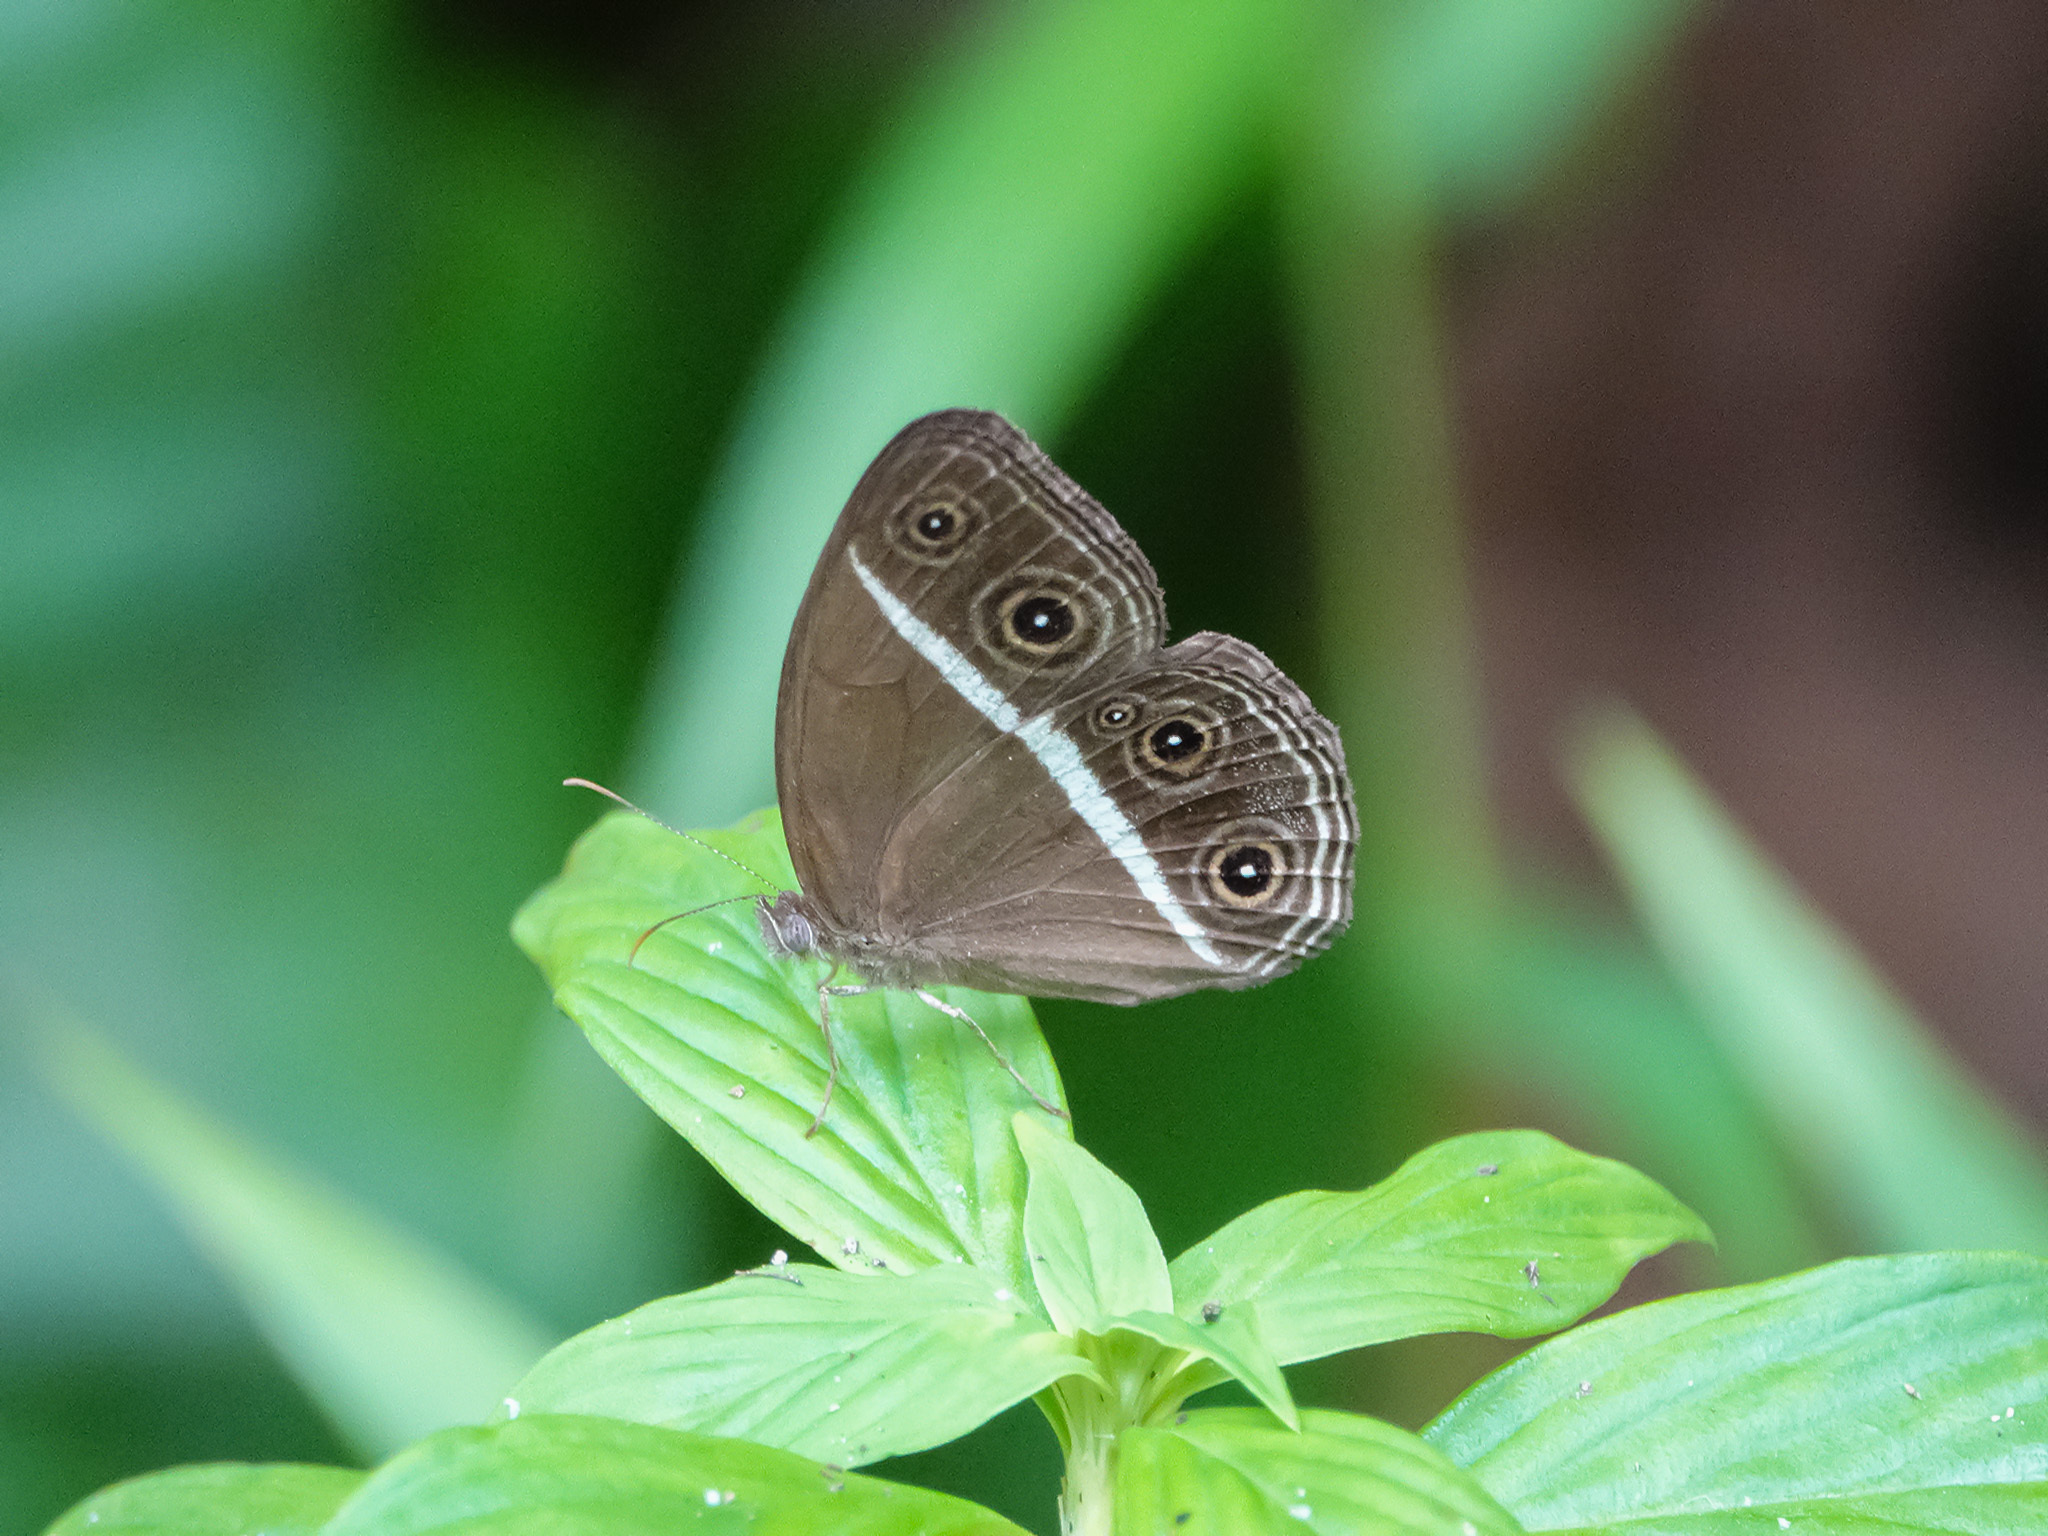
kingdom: Animalia
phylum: Arthropoda
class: Insecta
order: Lepidoptera
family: Nymphalidae
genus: Orsotriaena
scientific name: Orsotriaena medus
